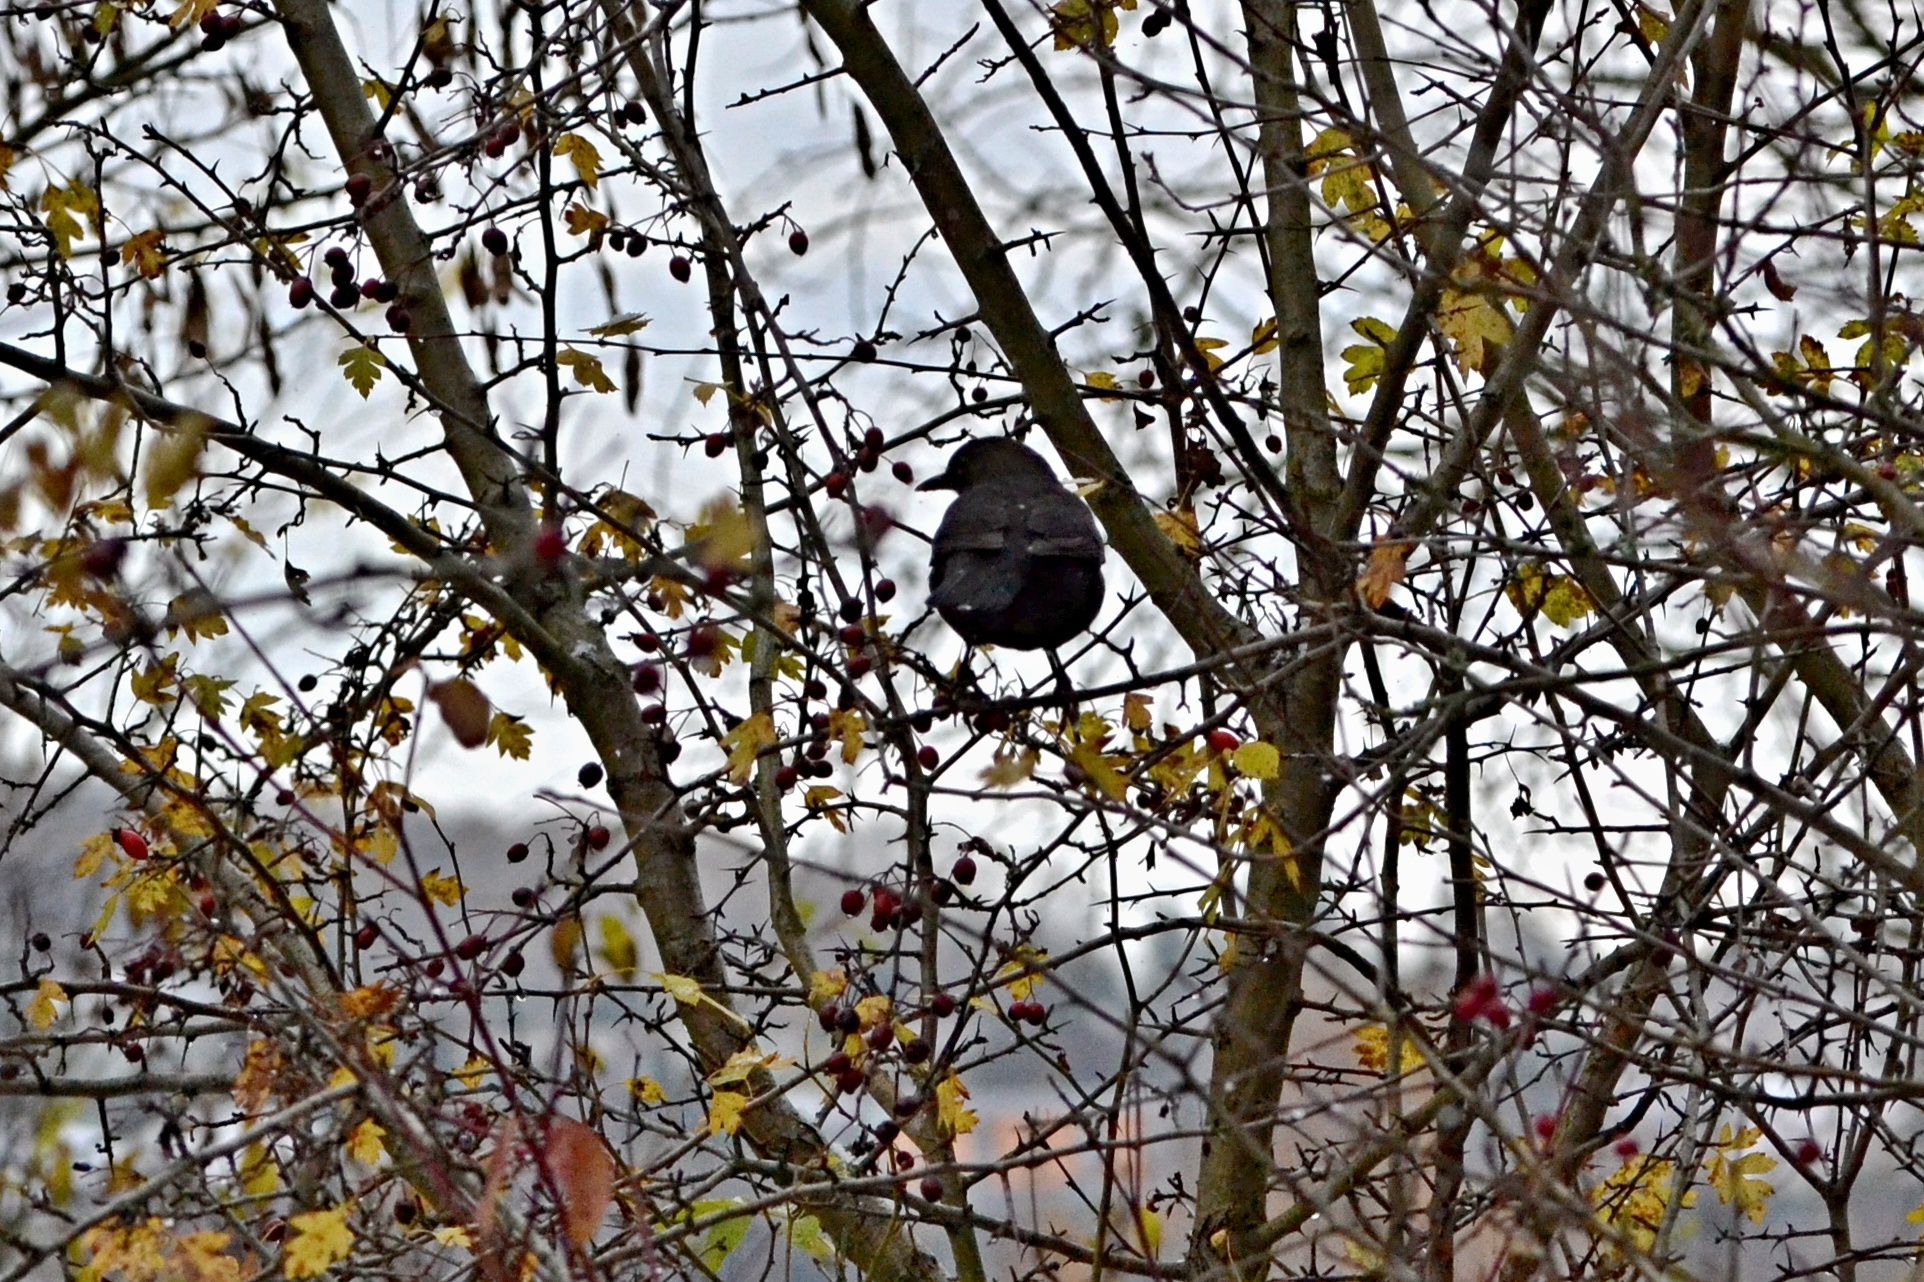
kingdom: Animalia
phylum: Chordata
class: Aves
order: Passeriformes
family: Turdidae
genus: Turdus
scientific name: Turdus merula
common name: Common blackbird
